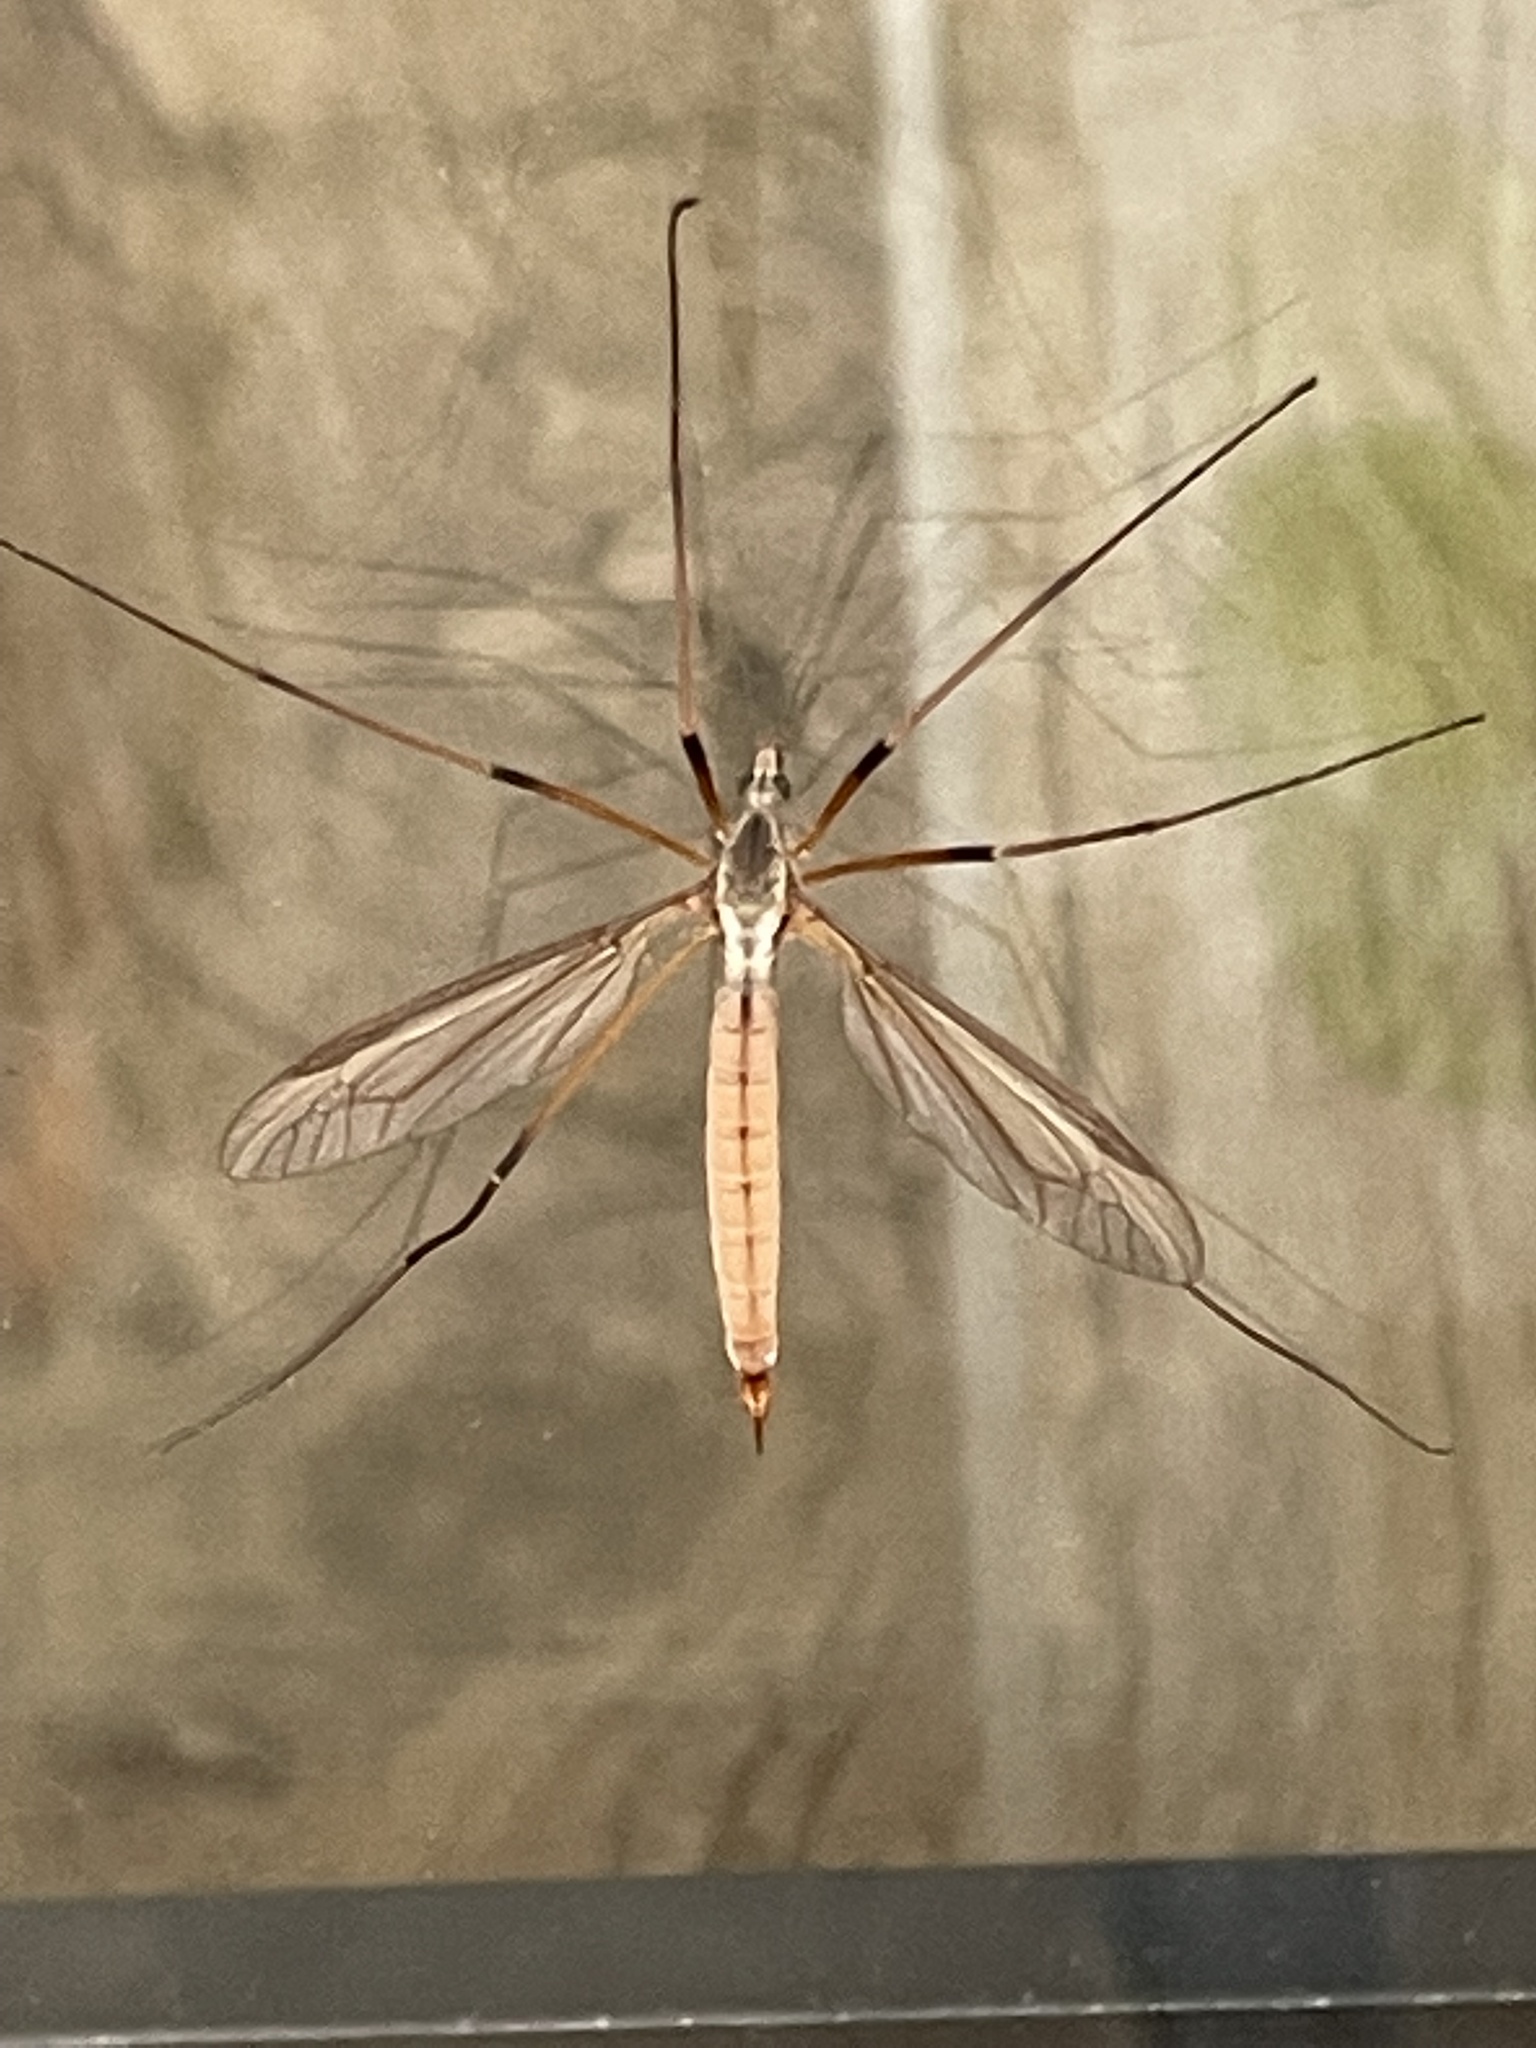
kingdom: Animalia
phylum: Arthropoda
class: Insecta
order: Diptera
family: Tipulidae
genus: Tipula
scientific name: Tipula paludosa
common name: European cranefly
